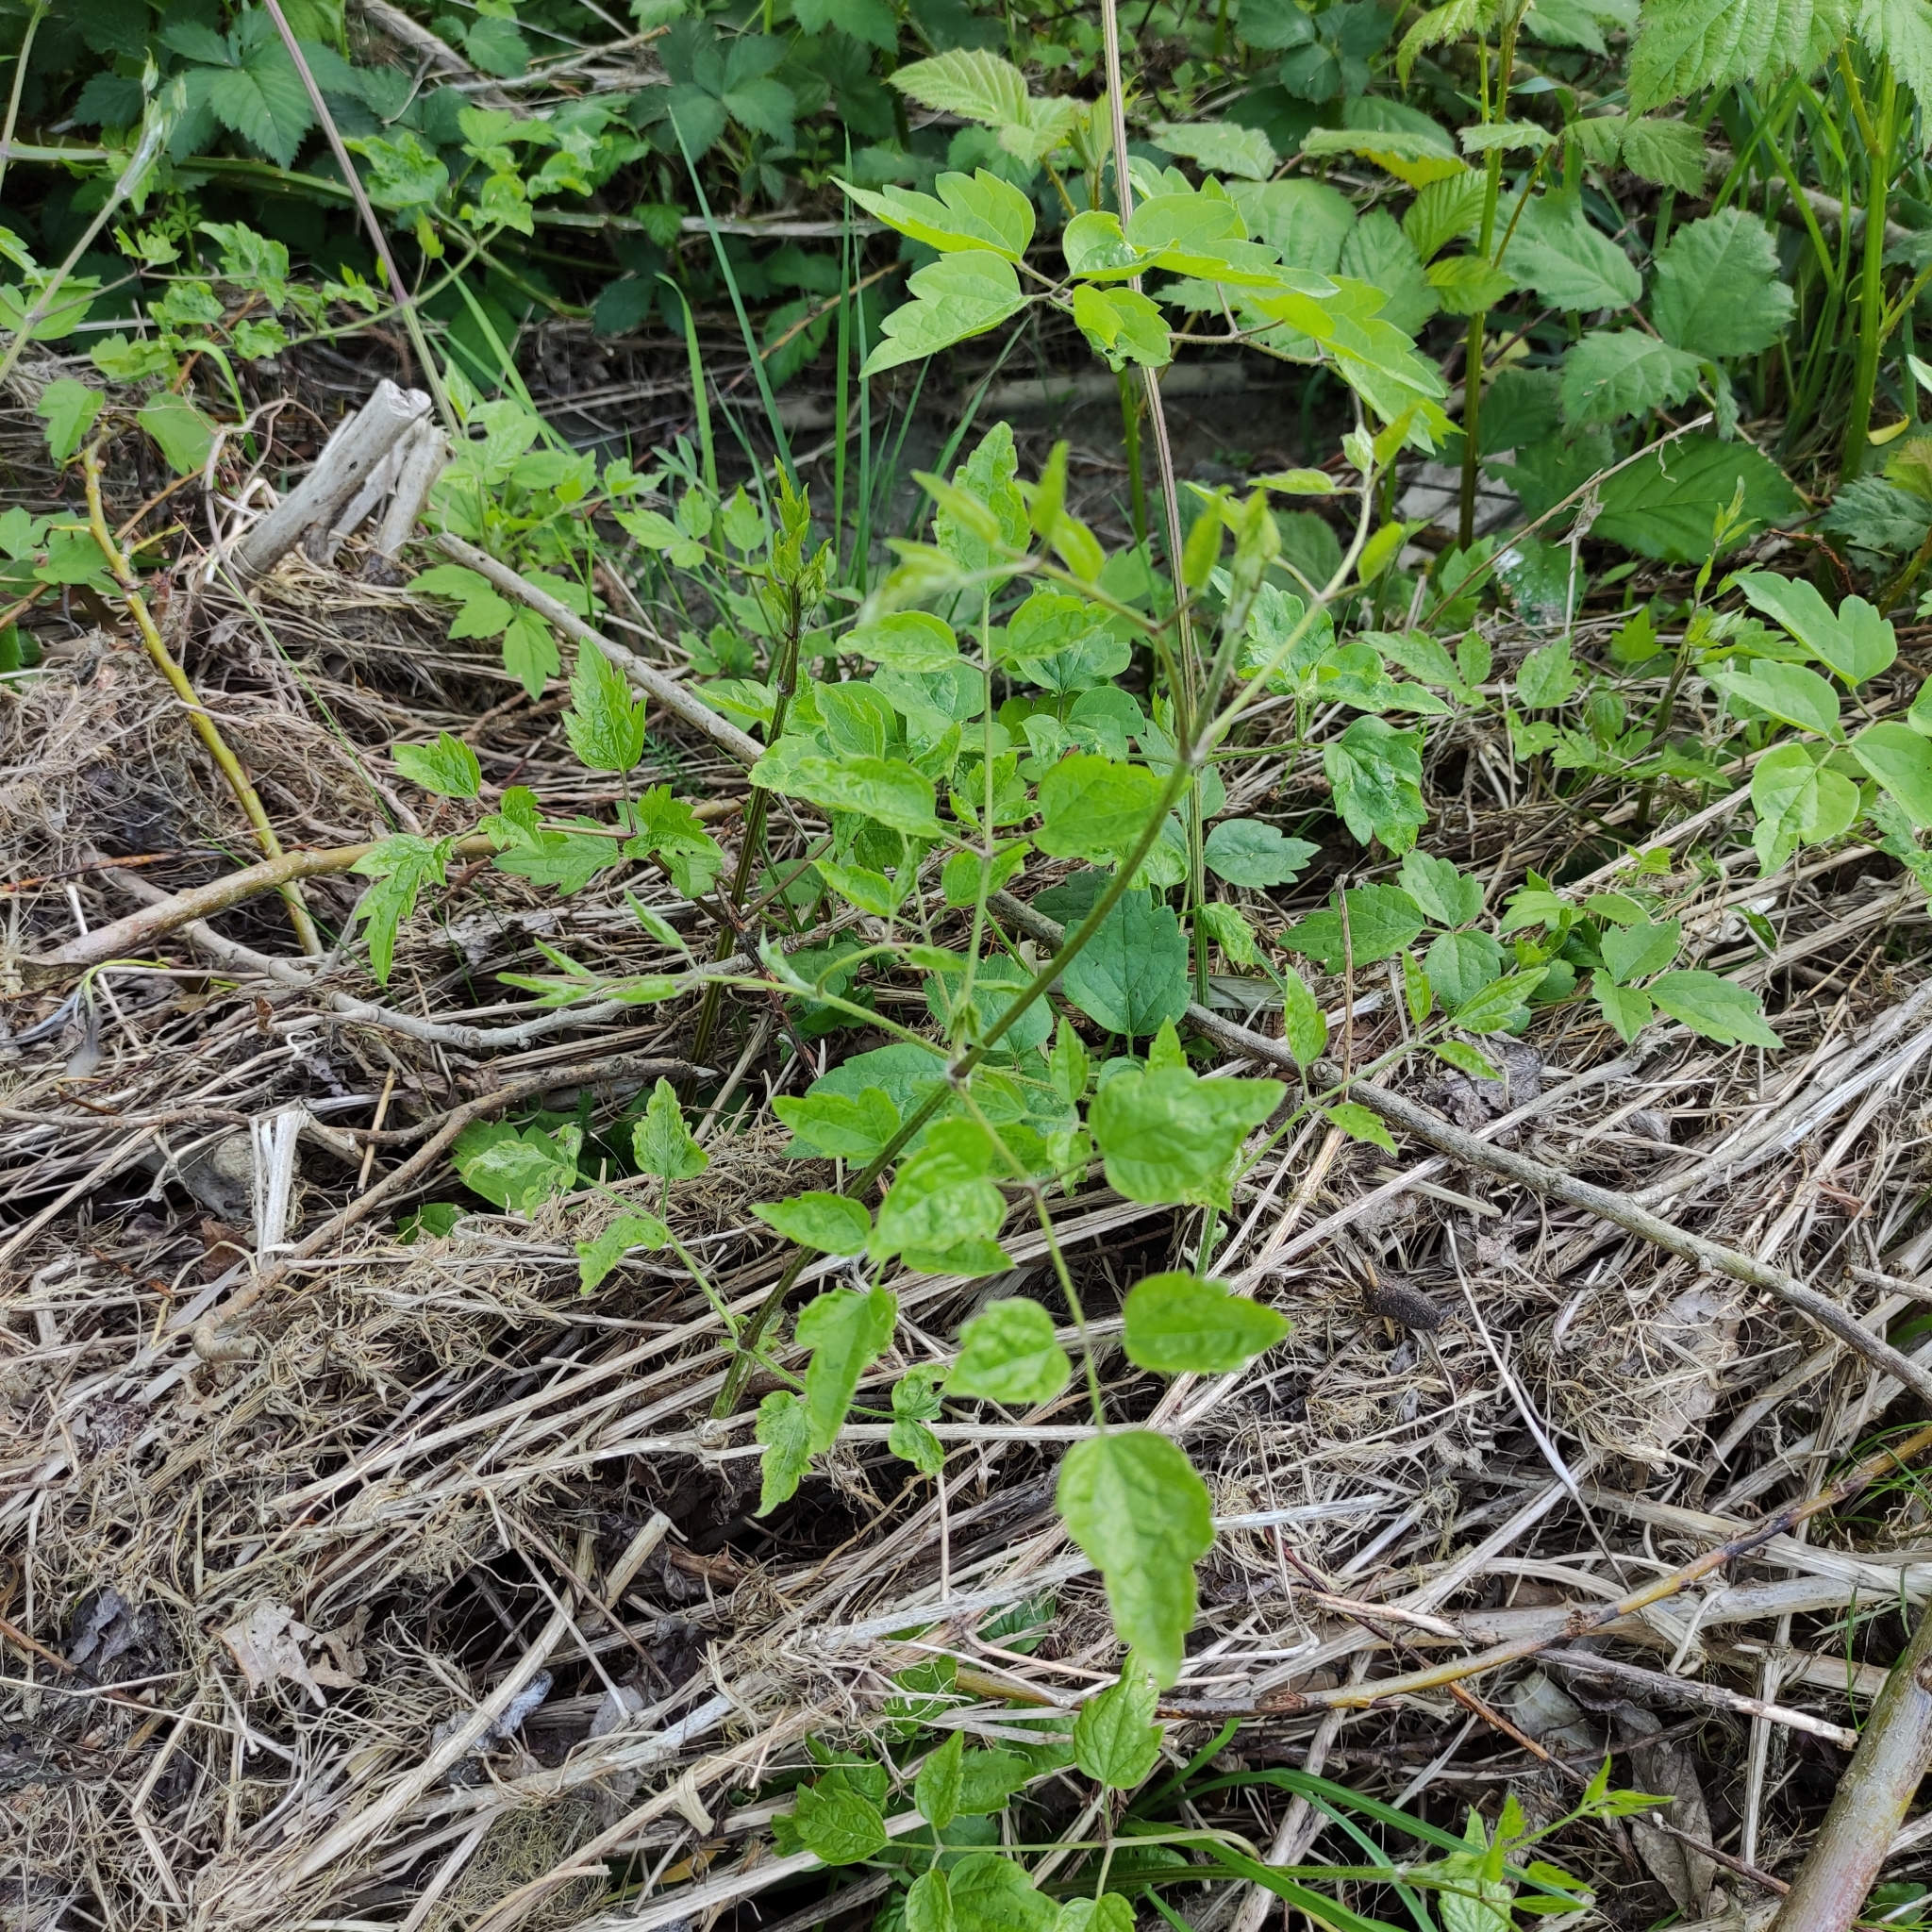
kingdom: Plantae
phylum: Tracheophyta
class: Magnoliopsida
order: Ranunculales
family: Ranunculaceae
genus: Clematis
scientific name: Clematis vitalba
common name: Evergreen clematis
